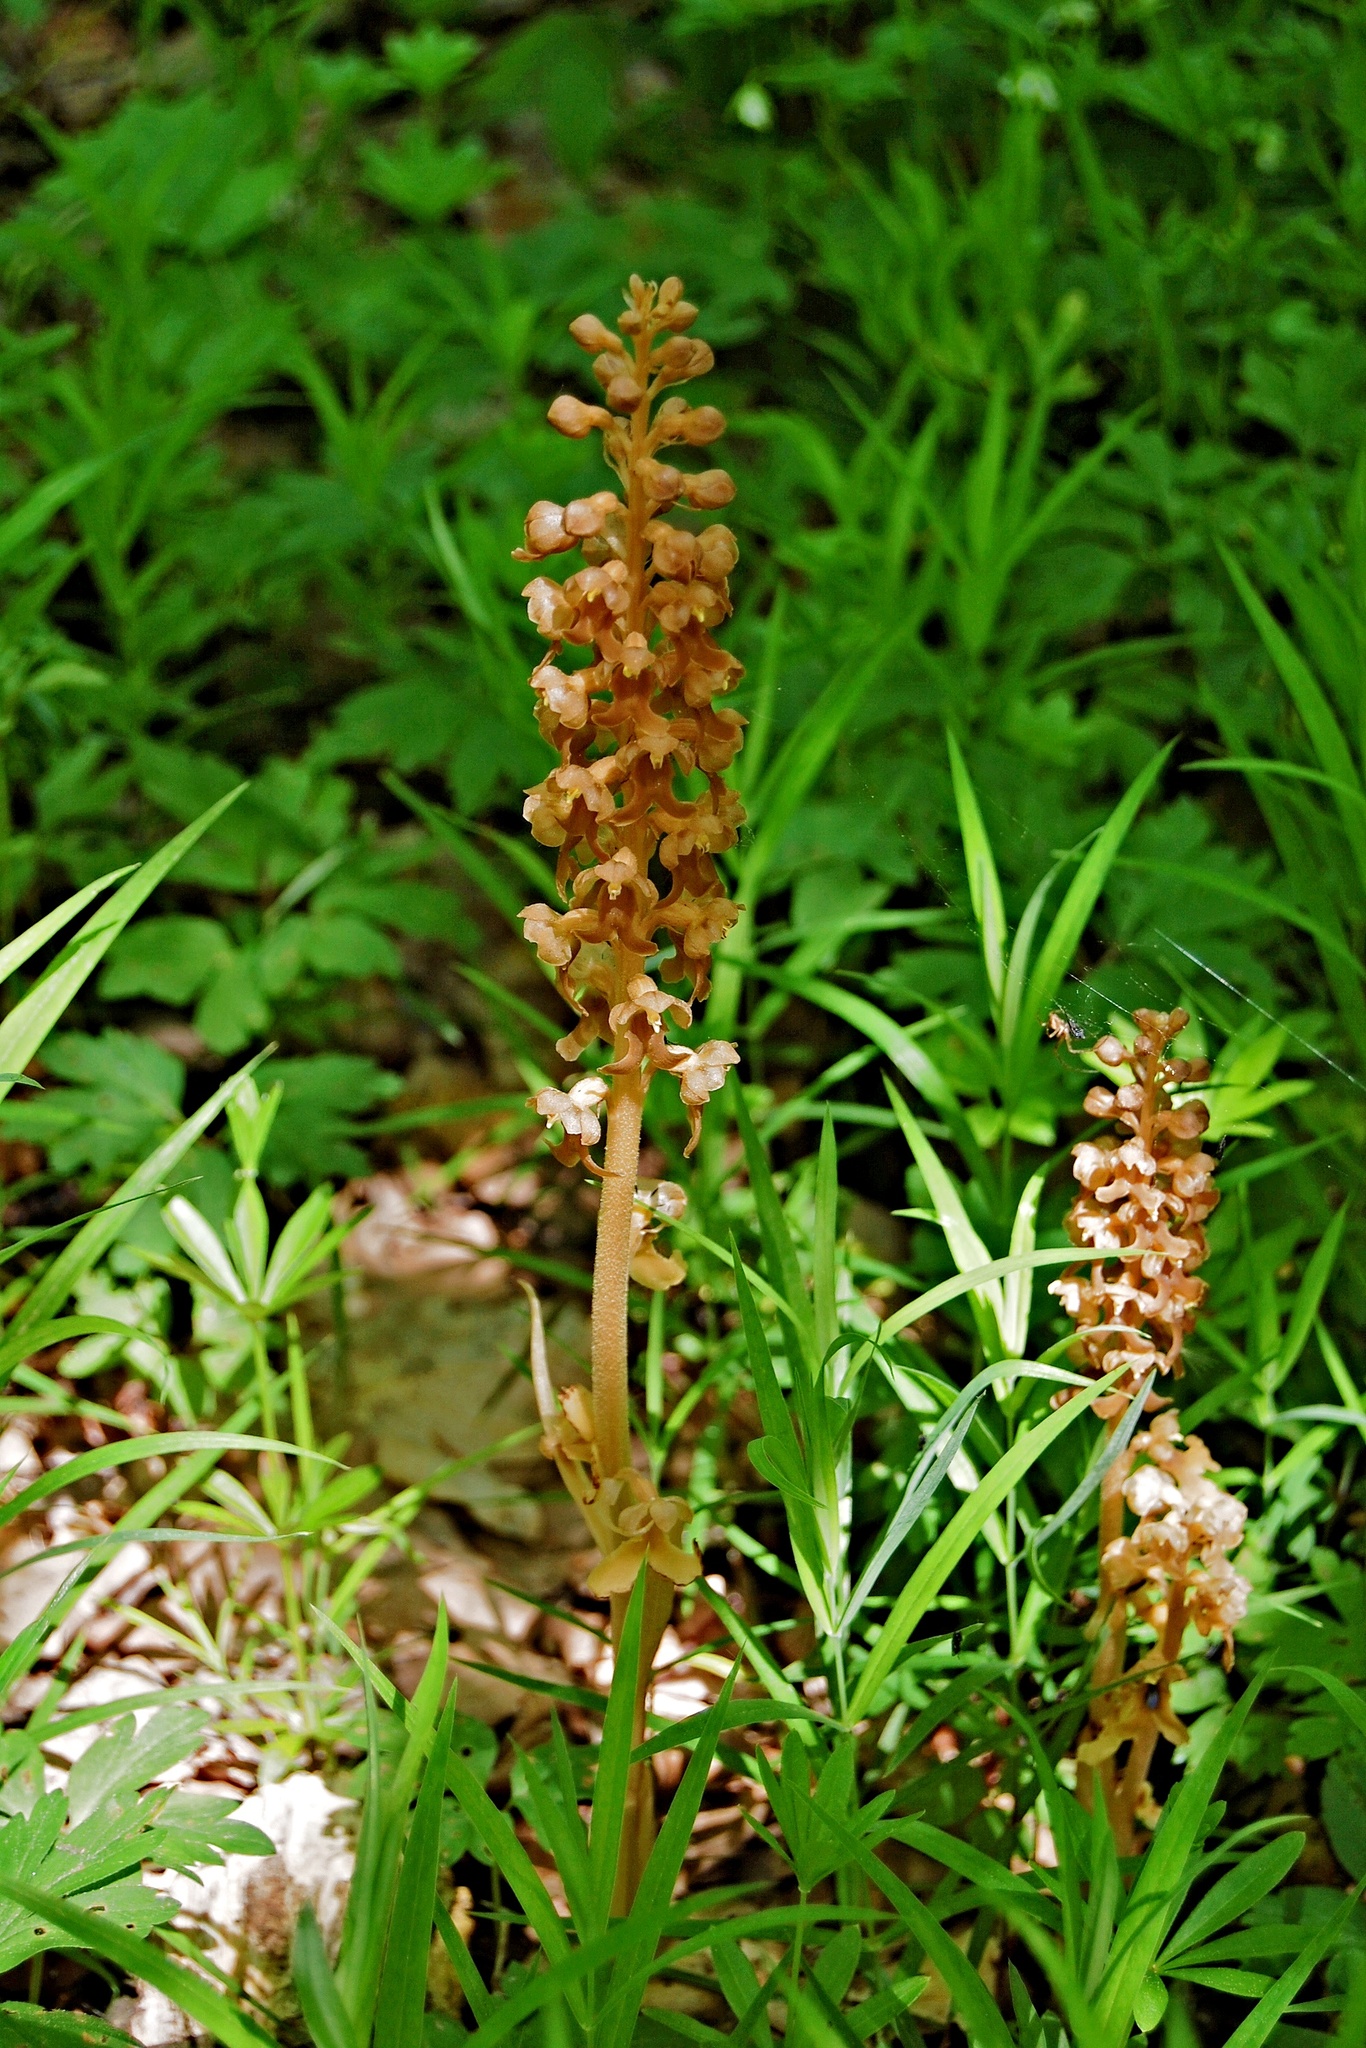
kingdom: Plantae
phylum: Tracheophyta
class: Liliopsida
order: Asparagales
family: Orchidaceae
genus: Neottia
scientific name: Neottia nidus-avis
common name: Bird's-nest orchid
